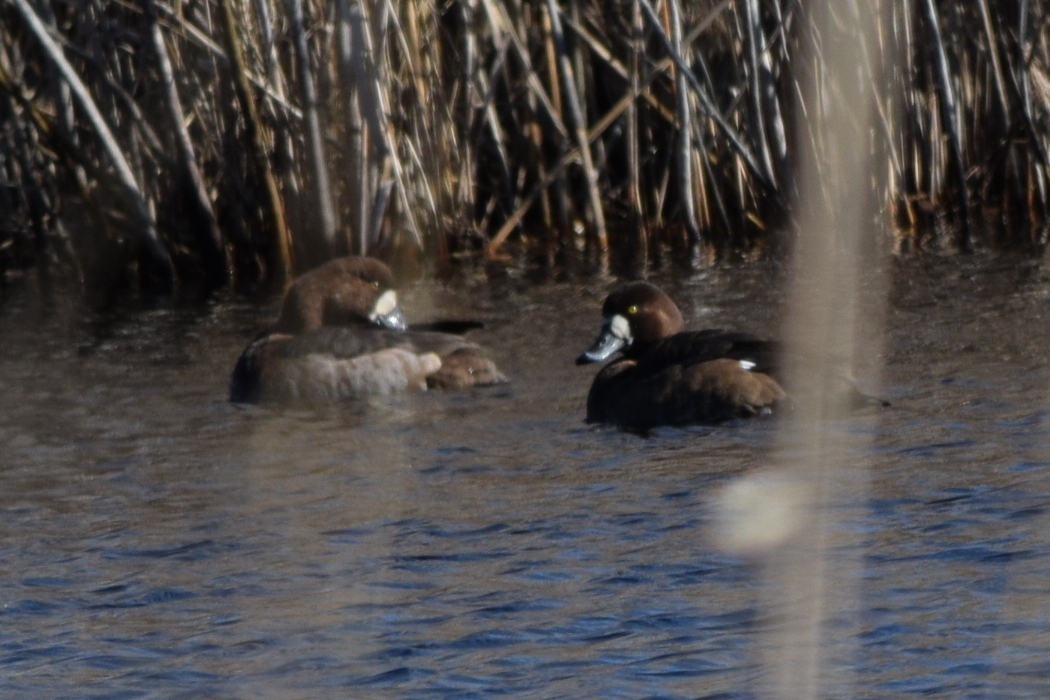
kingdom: Animalia
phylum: Chordata
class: Aves
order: Anseriformes
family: Anatidae
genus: Aythya
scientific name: Aythya marila
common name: Greater scaup
